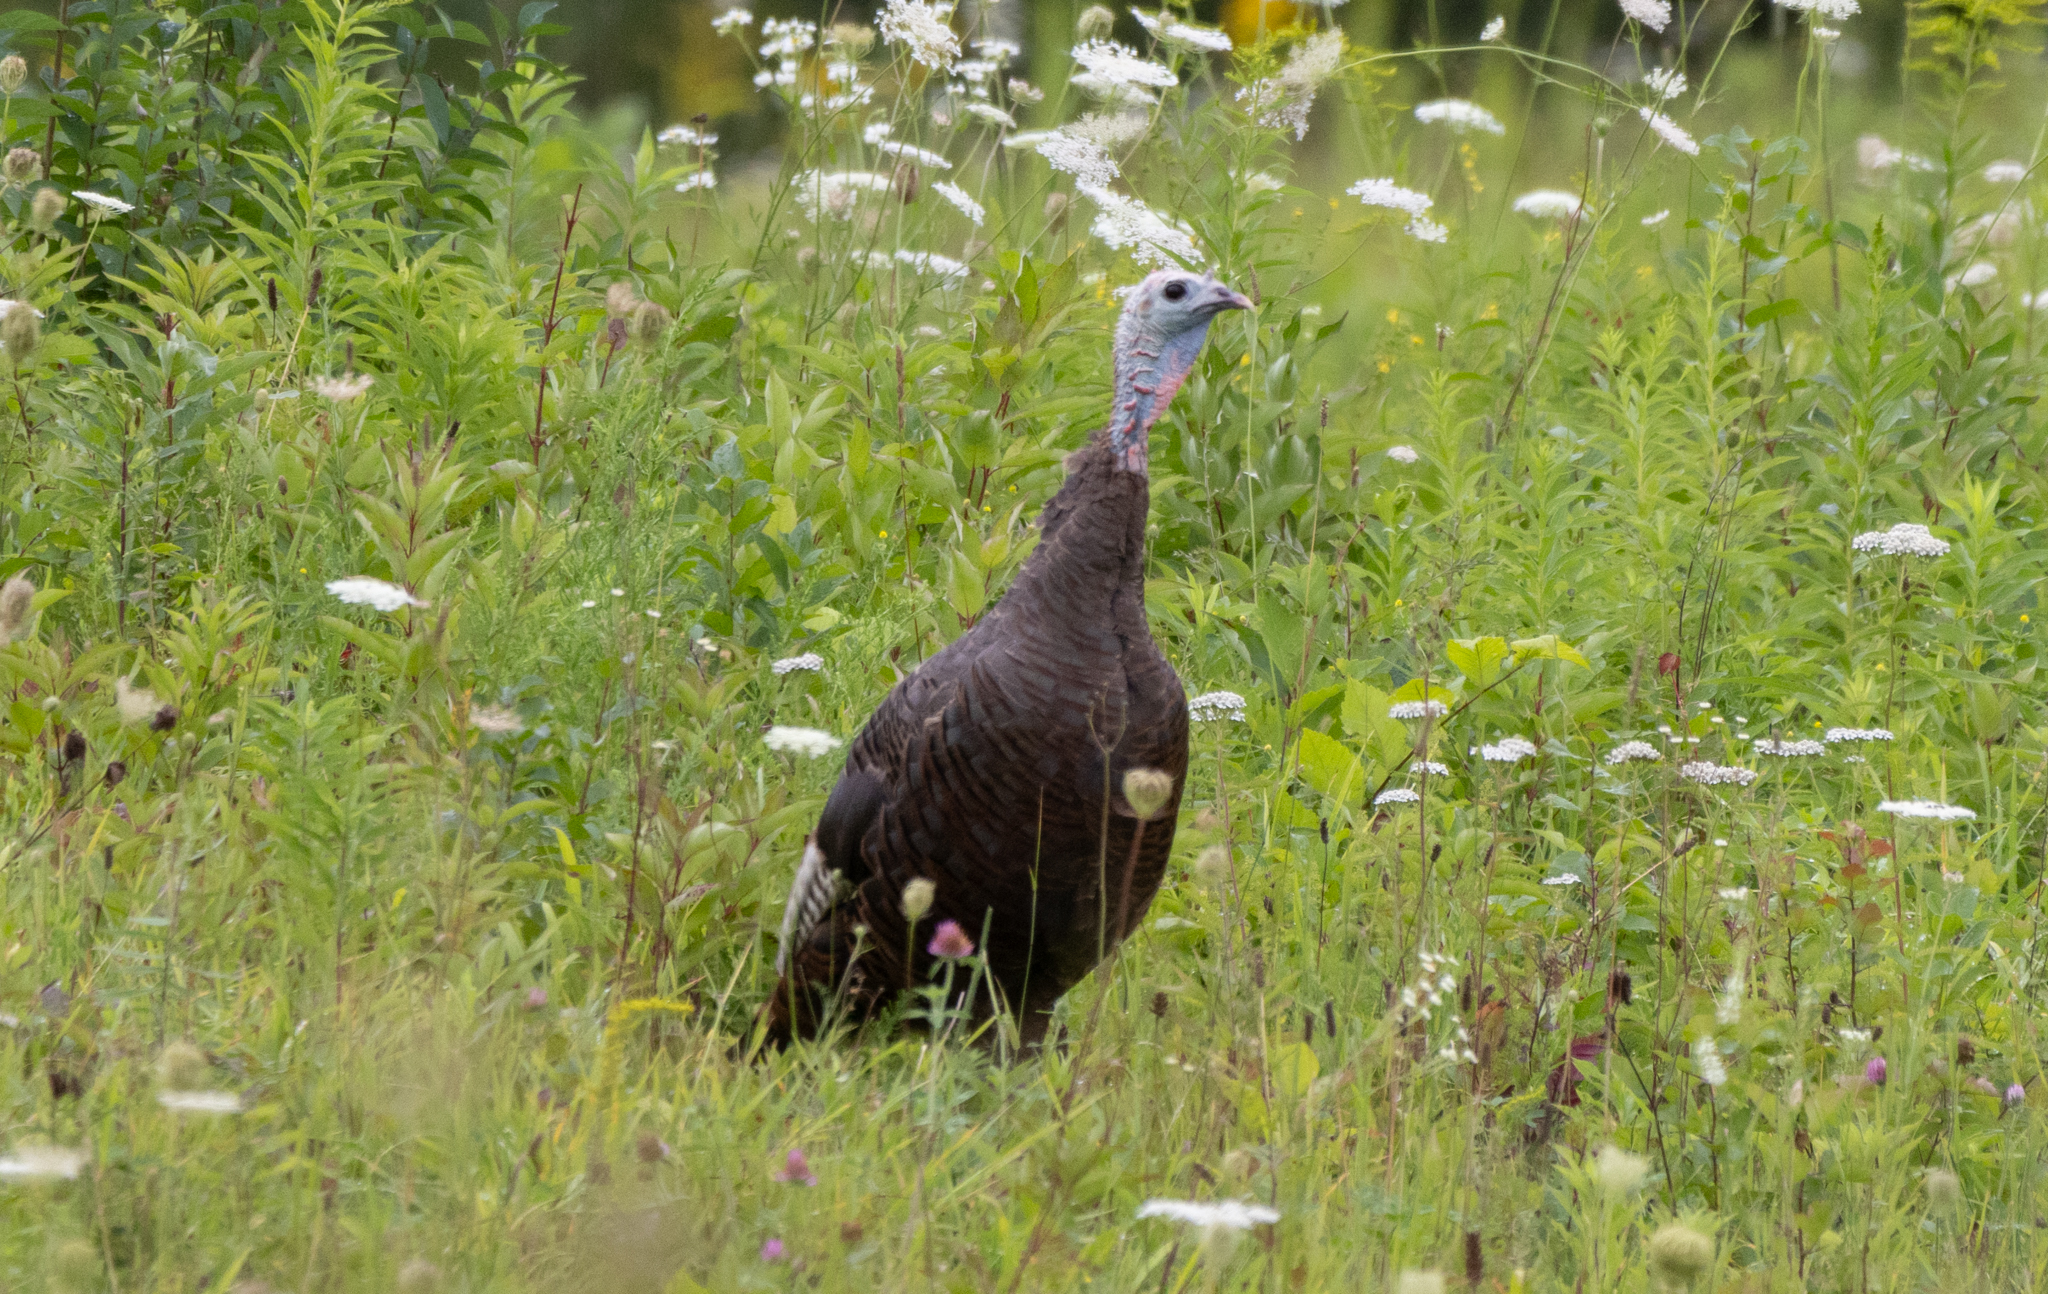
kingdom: Animalia
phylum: Chordata
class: Aves
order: Galliformes
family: Phasianidae
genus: Meleagris
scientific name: Meleagris gallopavo
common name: Wild turkey
